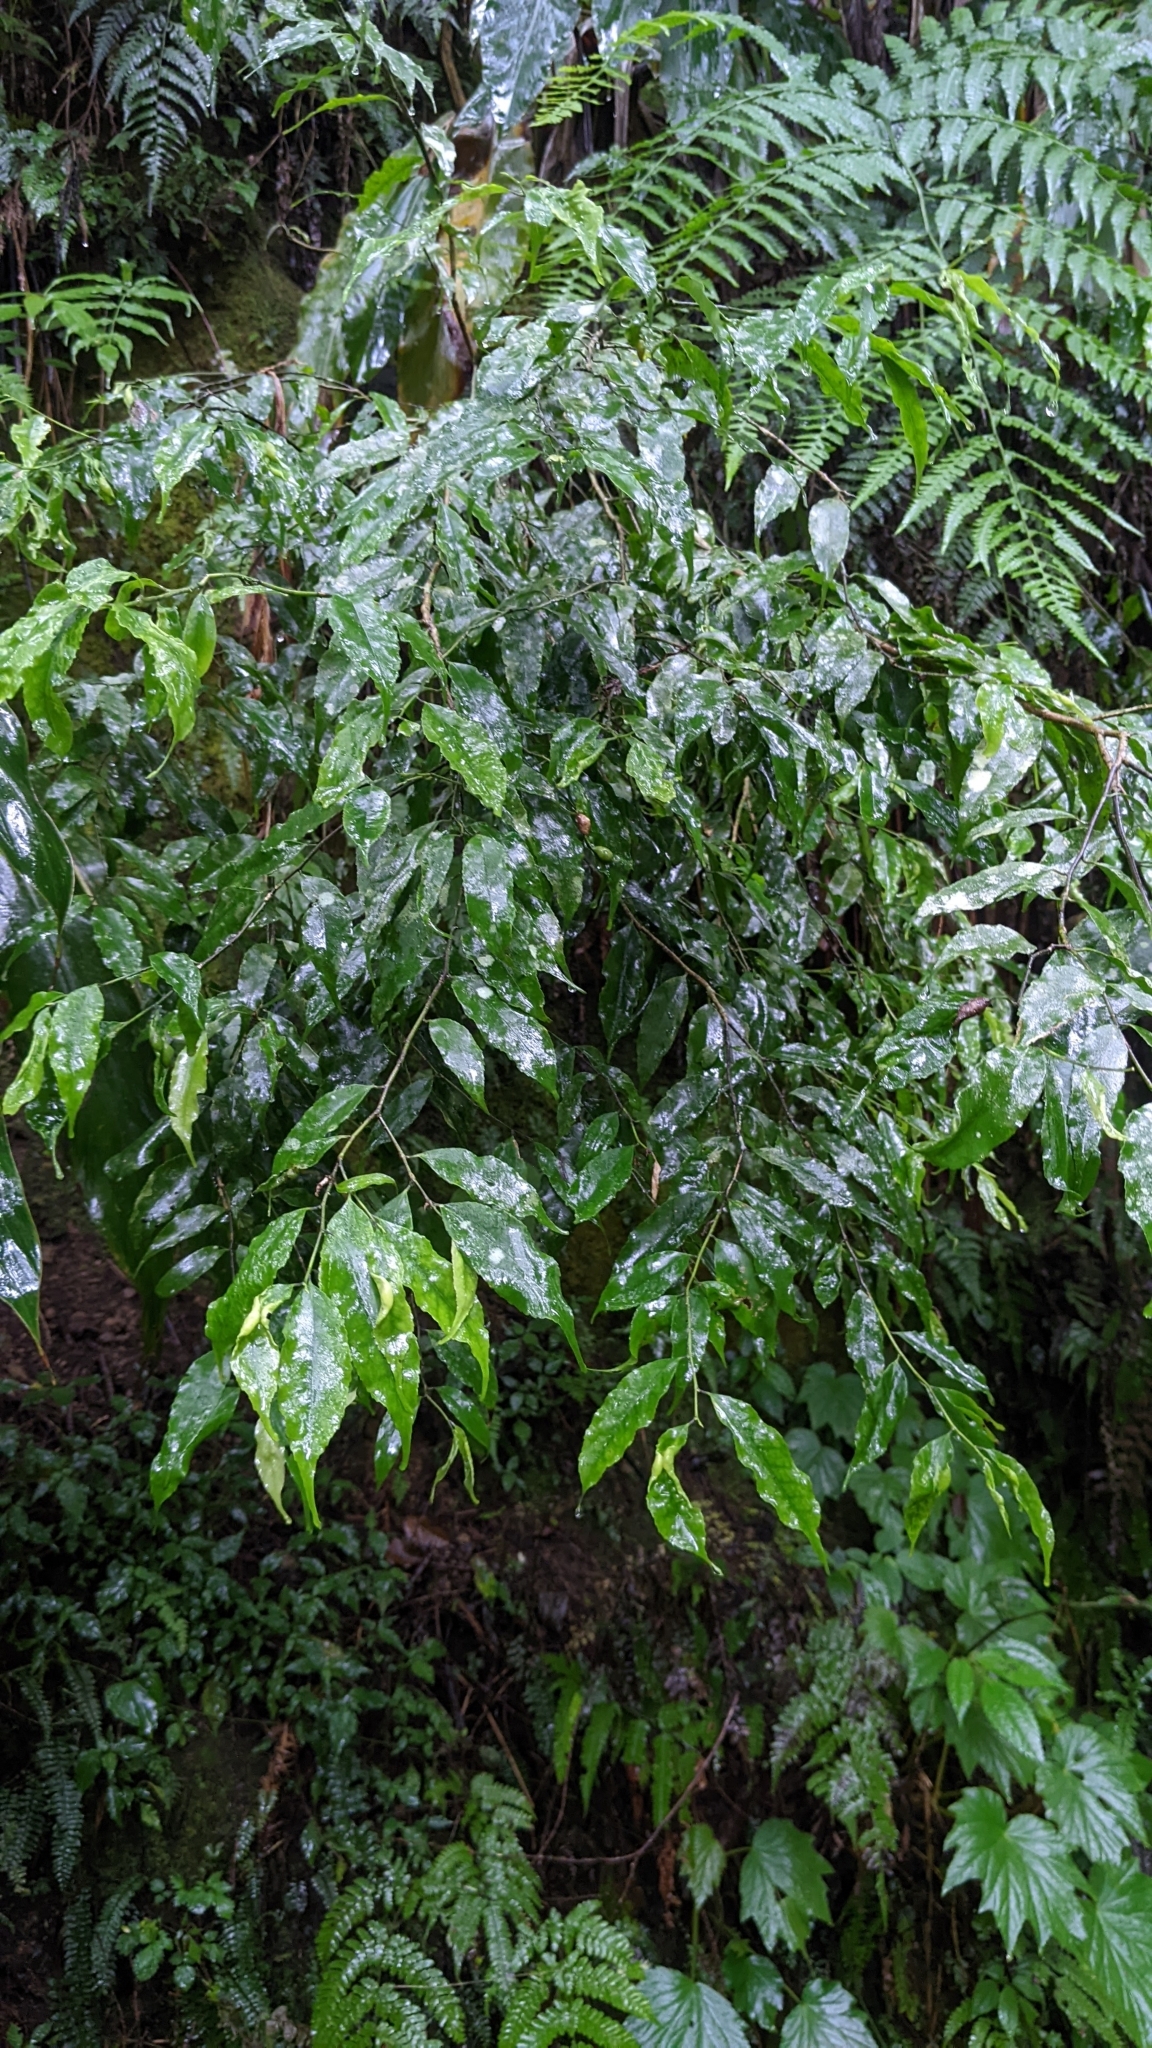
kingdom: Plantae
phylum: Tracheophyta
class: Magnoliopsida
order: Aquifoliales
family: Aquifoliaceae
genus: Ilex
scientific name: Ilex arisanensis
